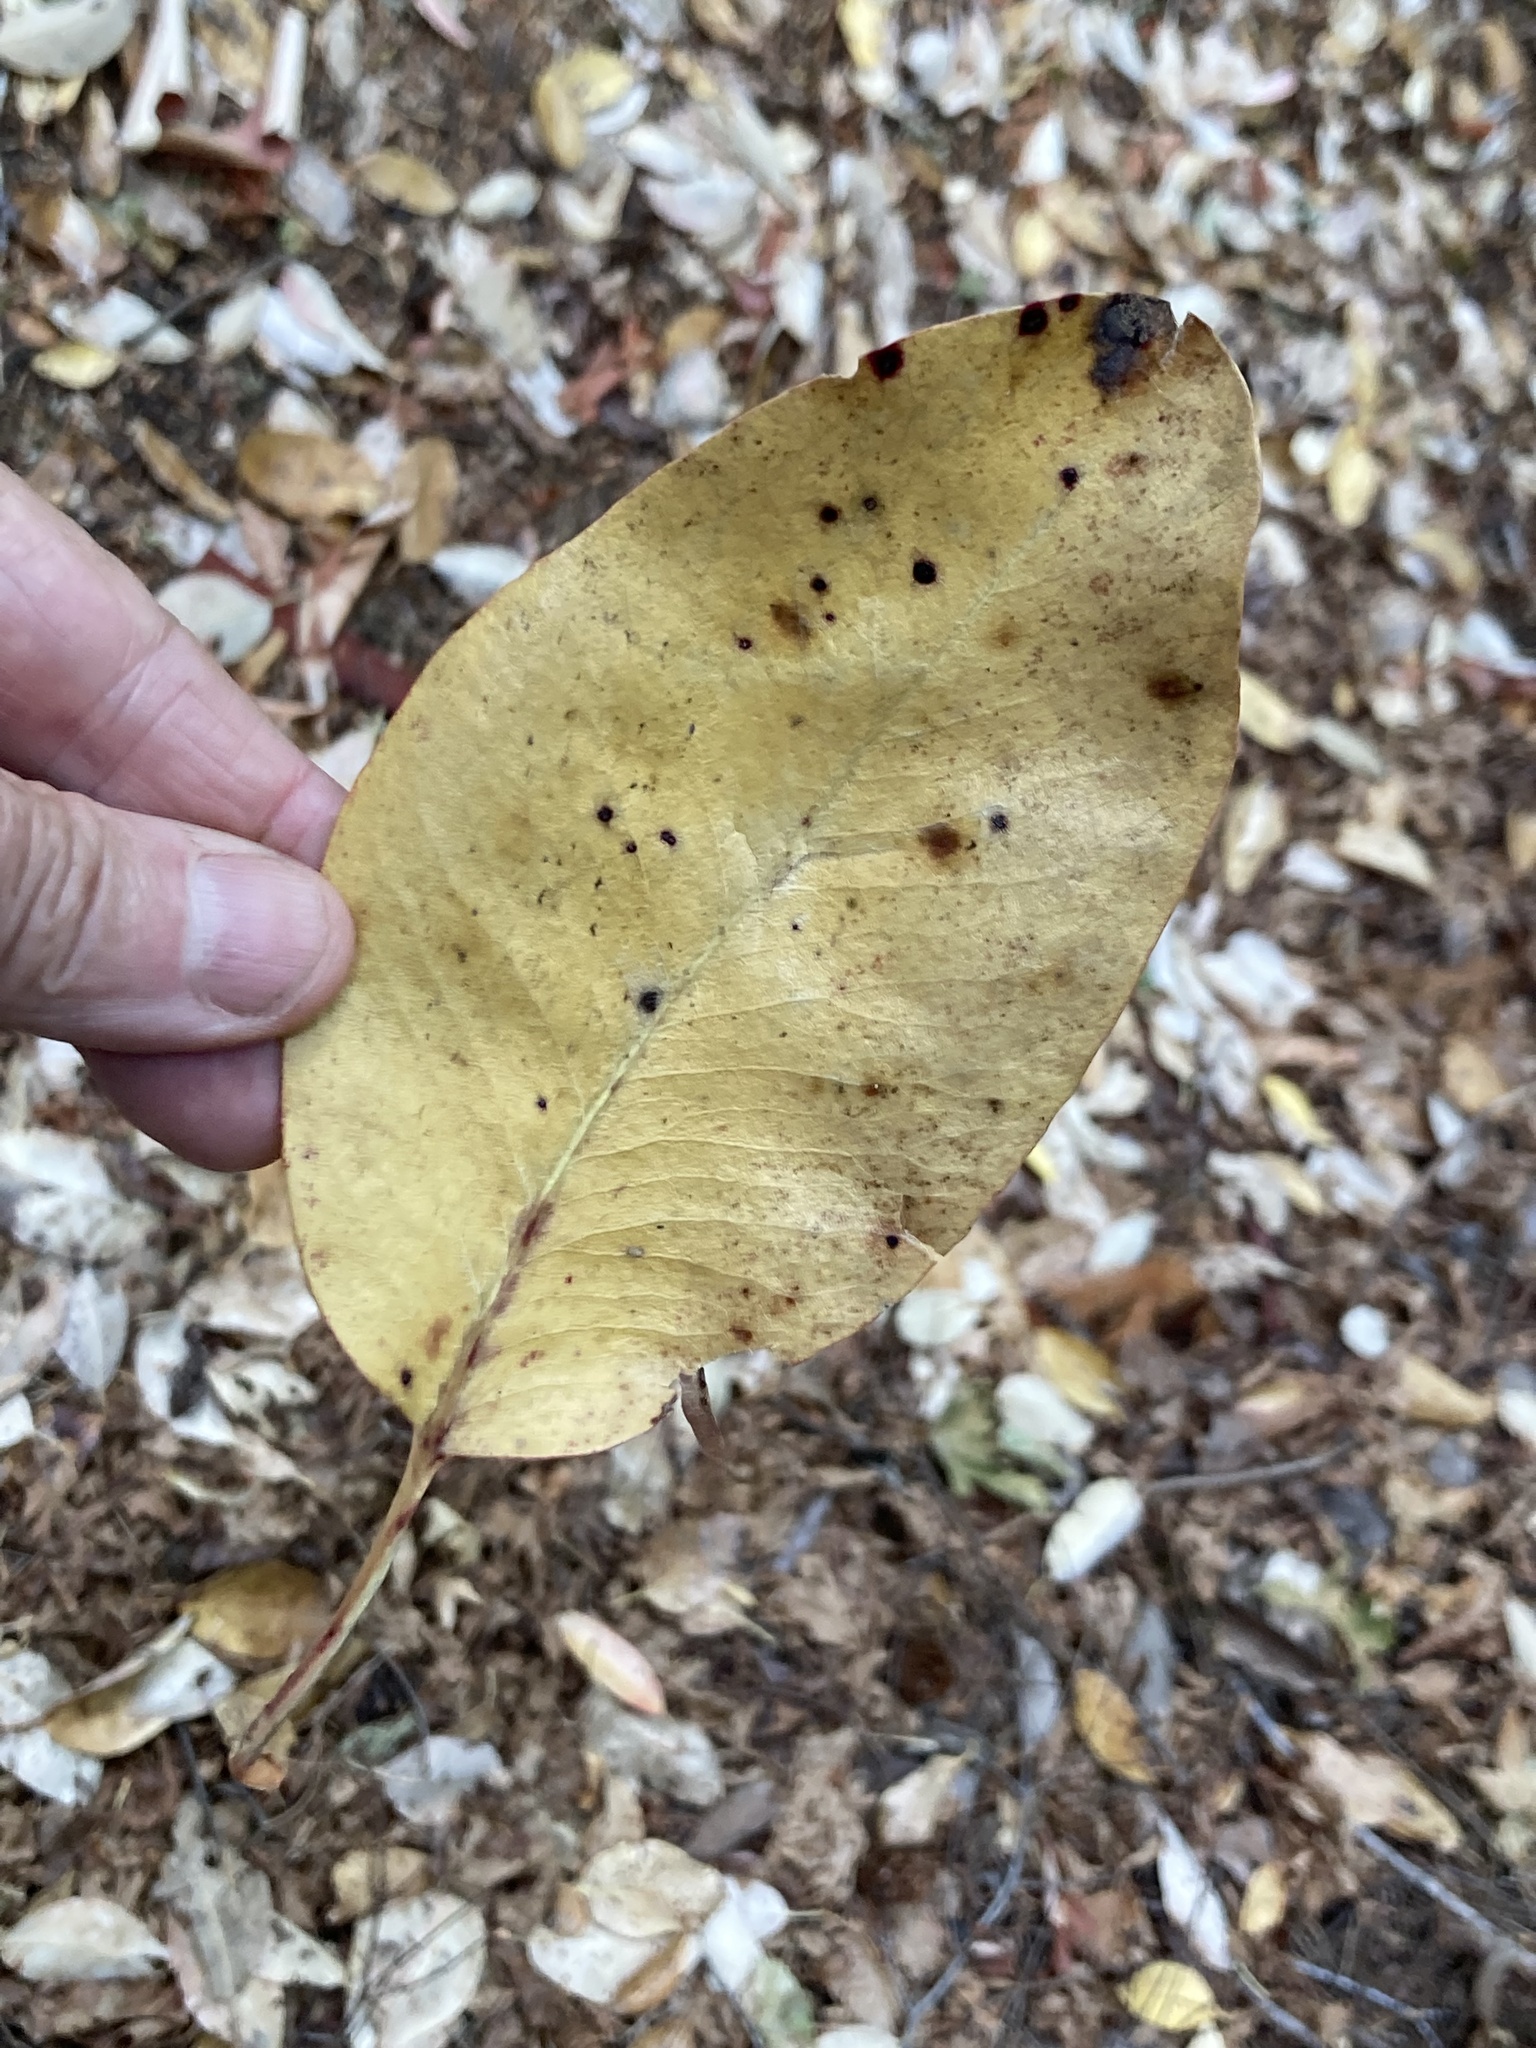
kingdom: Plantae
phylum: Tracheophyta
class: Magnoliopsida
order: Ericales
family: Ericaceae
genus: Arbutus
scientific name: Arbutus menziesii
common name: Pacific madrone
